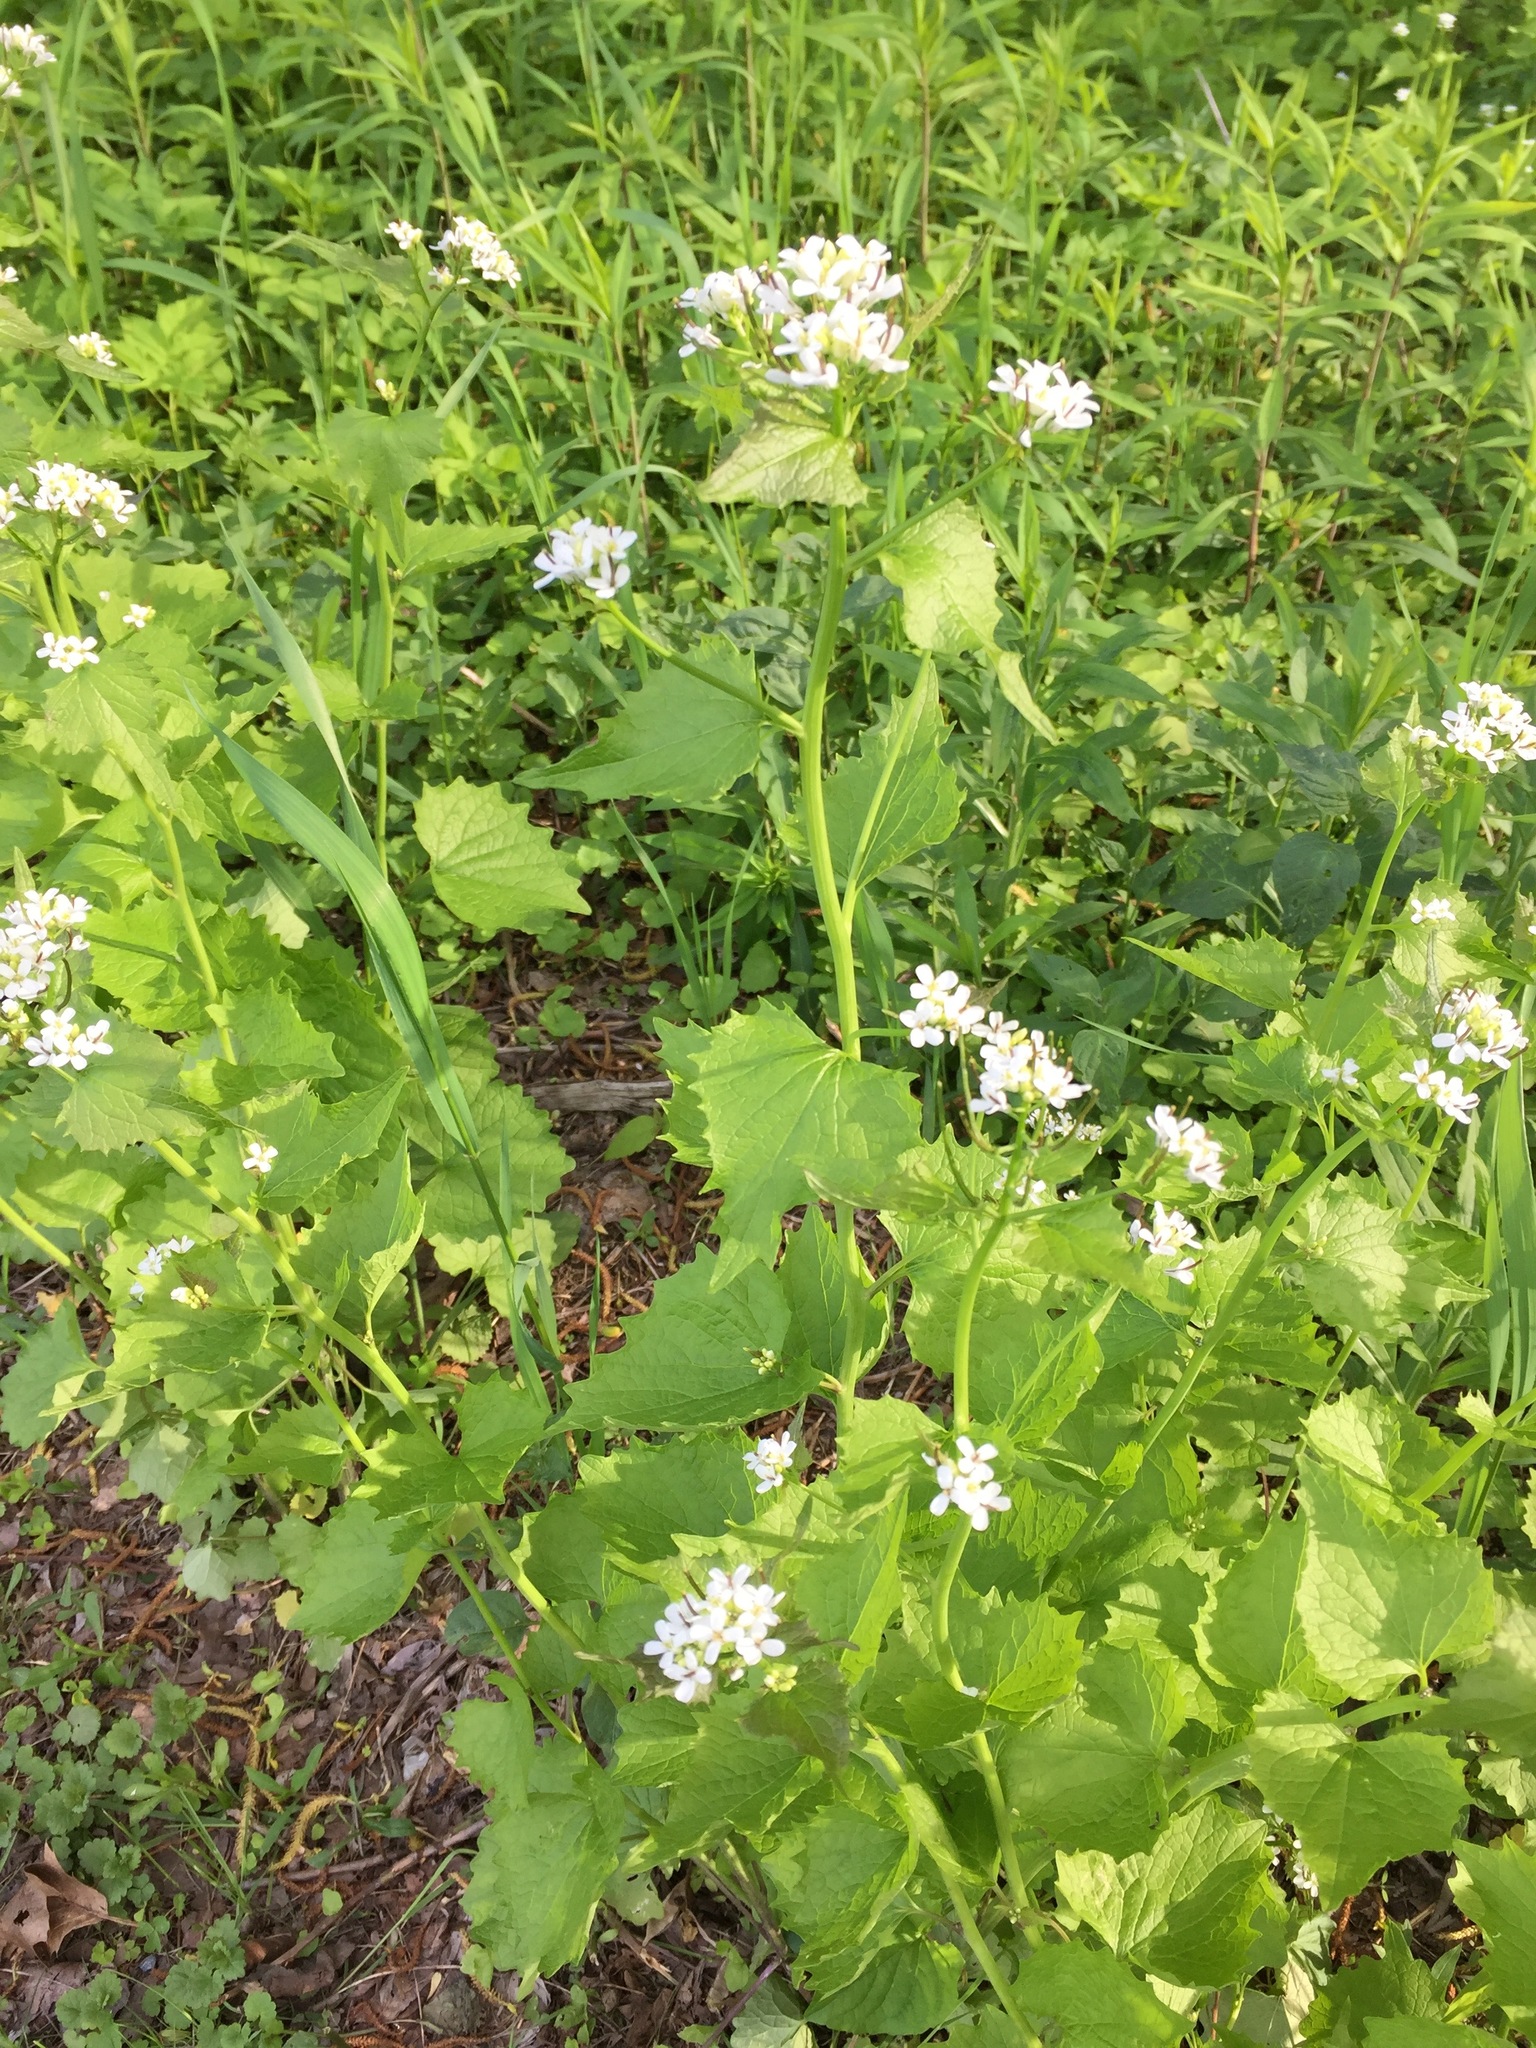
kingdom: Plantae
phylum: Tracheophyta
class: Magnoliopsida
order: Brassicales
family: Brassicaceae
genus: Alliaria
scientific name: Alliaria petiolata
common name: Garlic mustard
